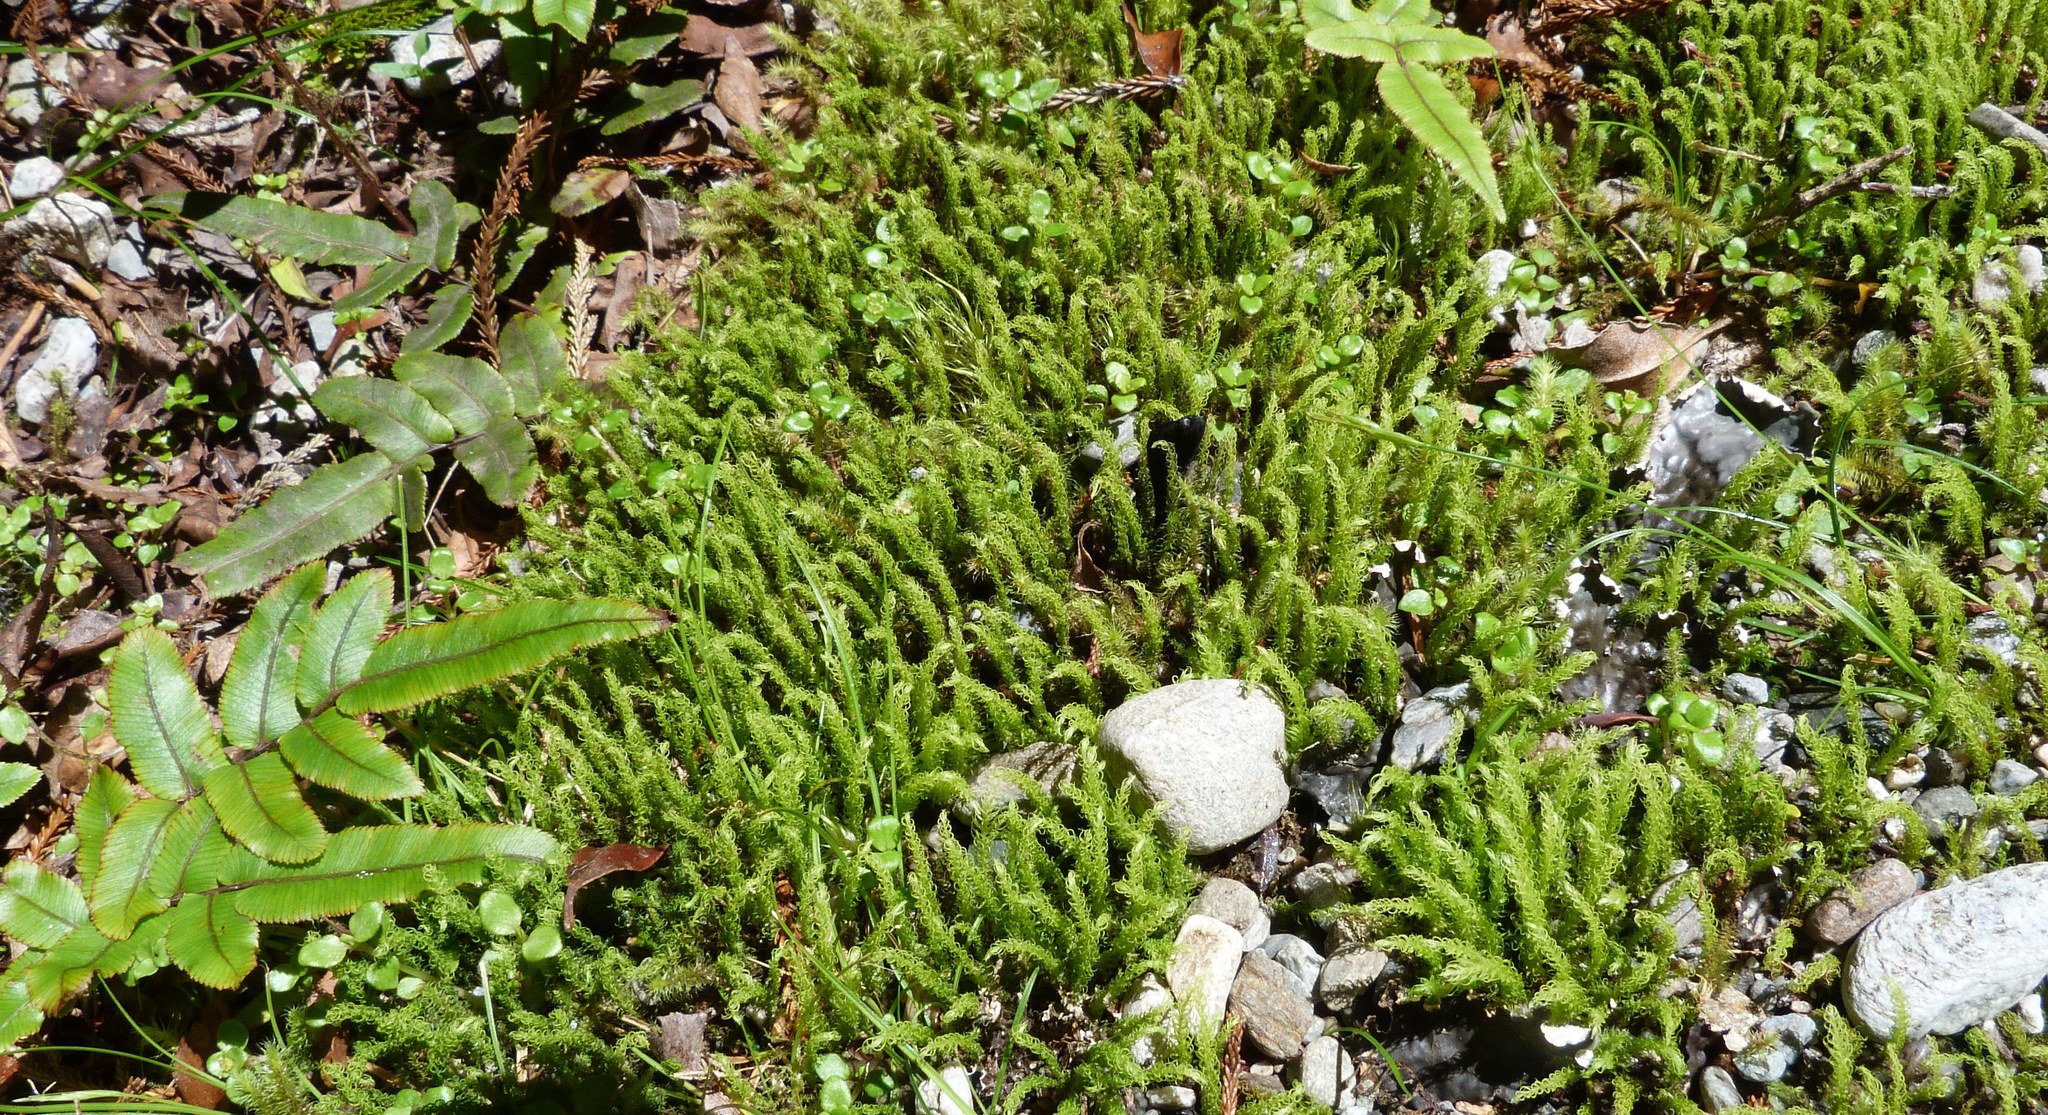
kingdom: Plantae
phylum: Bryophyta
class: Bryopsida
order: Aulacomniales
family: Aulacomniaceae
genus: Hymenodontopsis
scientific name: Hymenodontopsis mnioides
